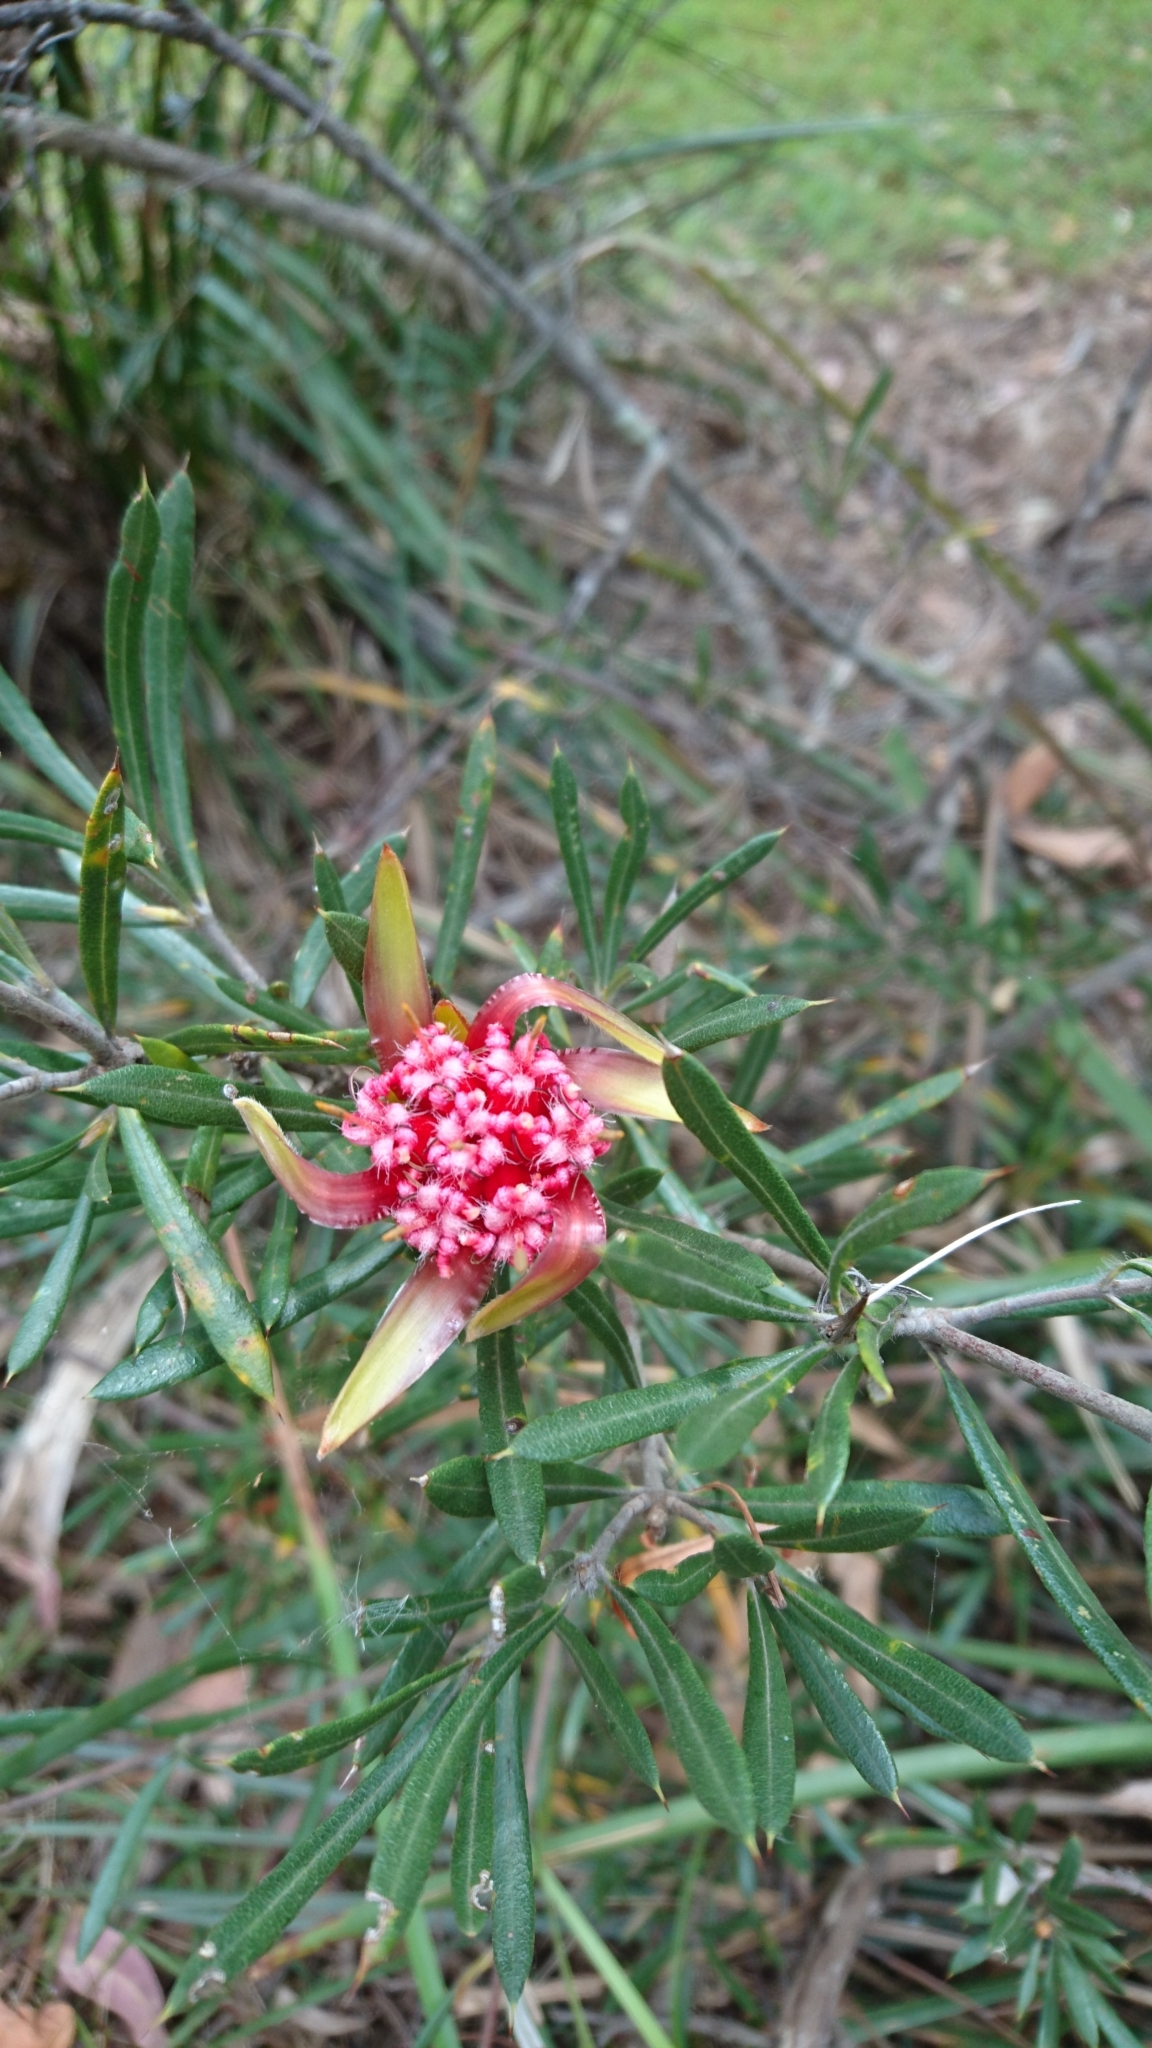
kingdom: Plantae
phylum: Tracheophyta
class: Magnoliopsida
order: Proteales
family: Proteaceae
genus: Lambertia
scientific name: Lambertia formosa
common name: Mountain-devil
